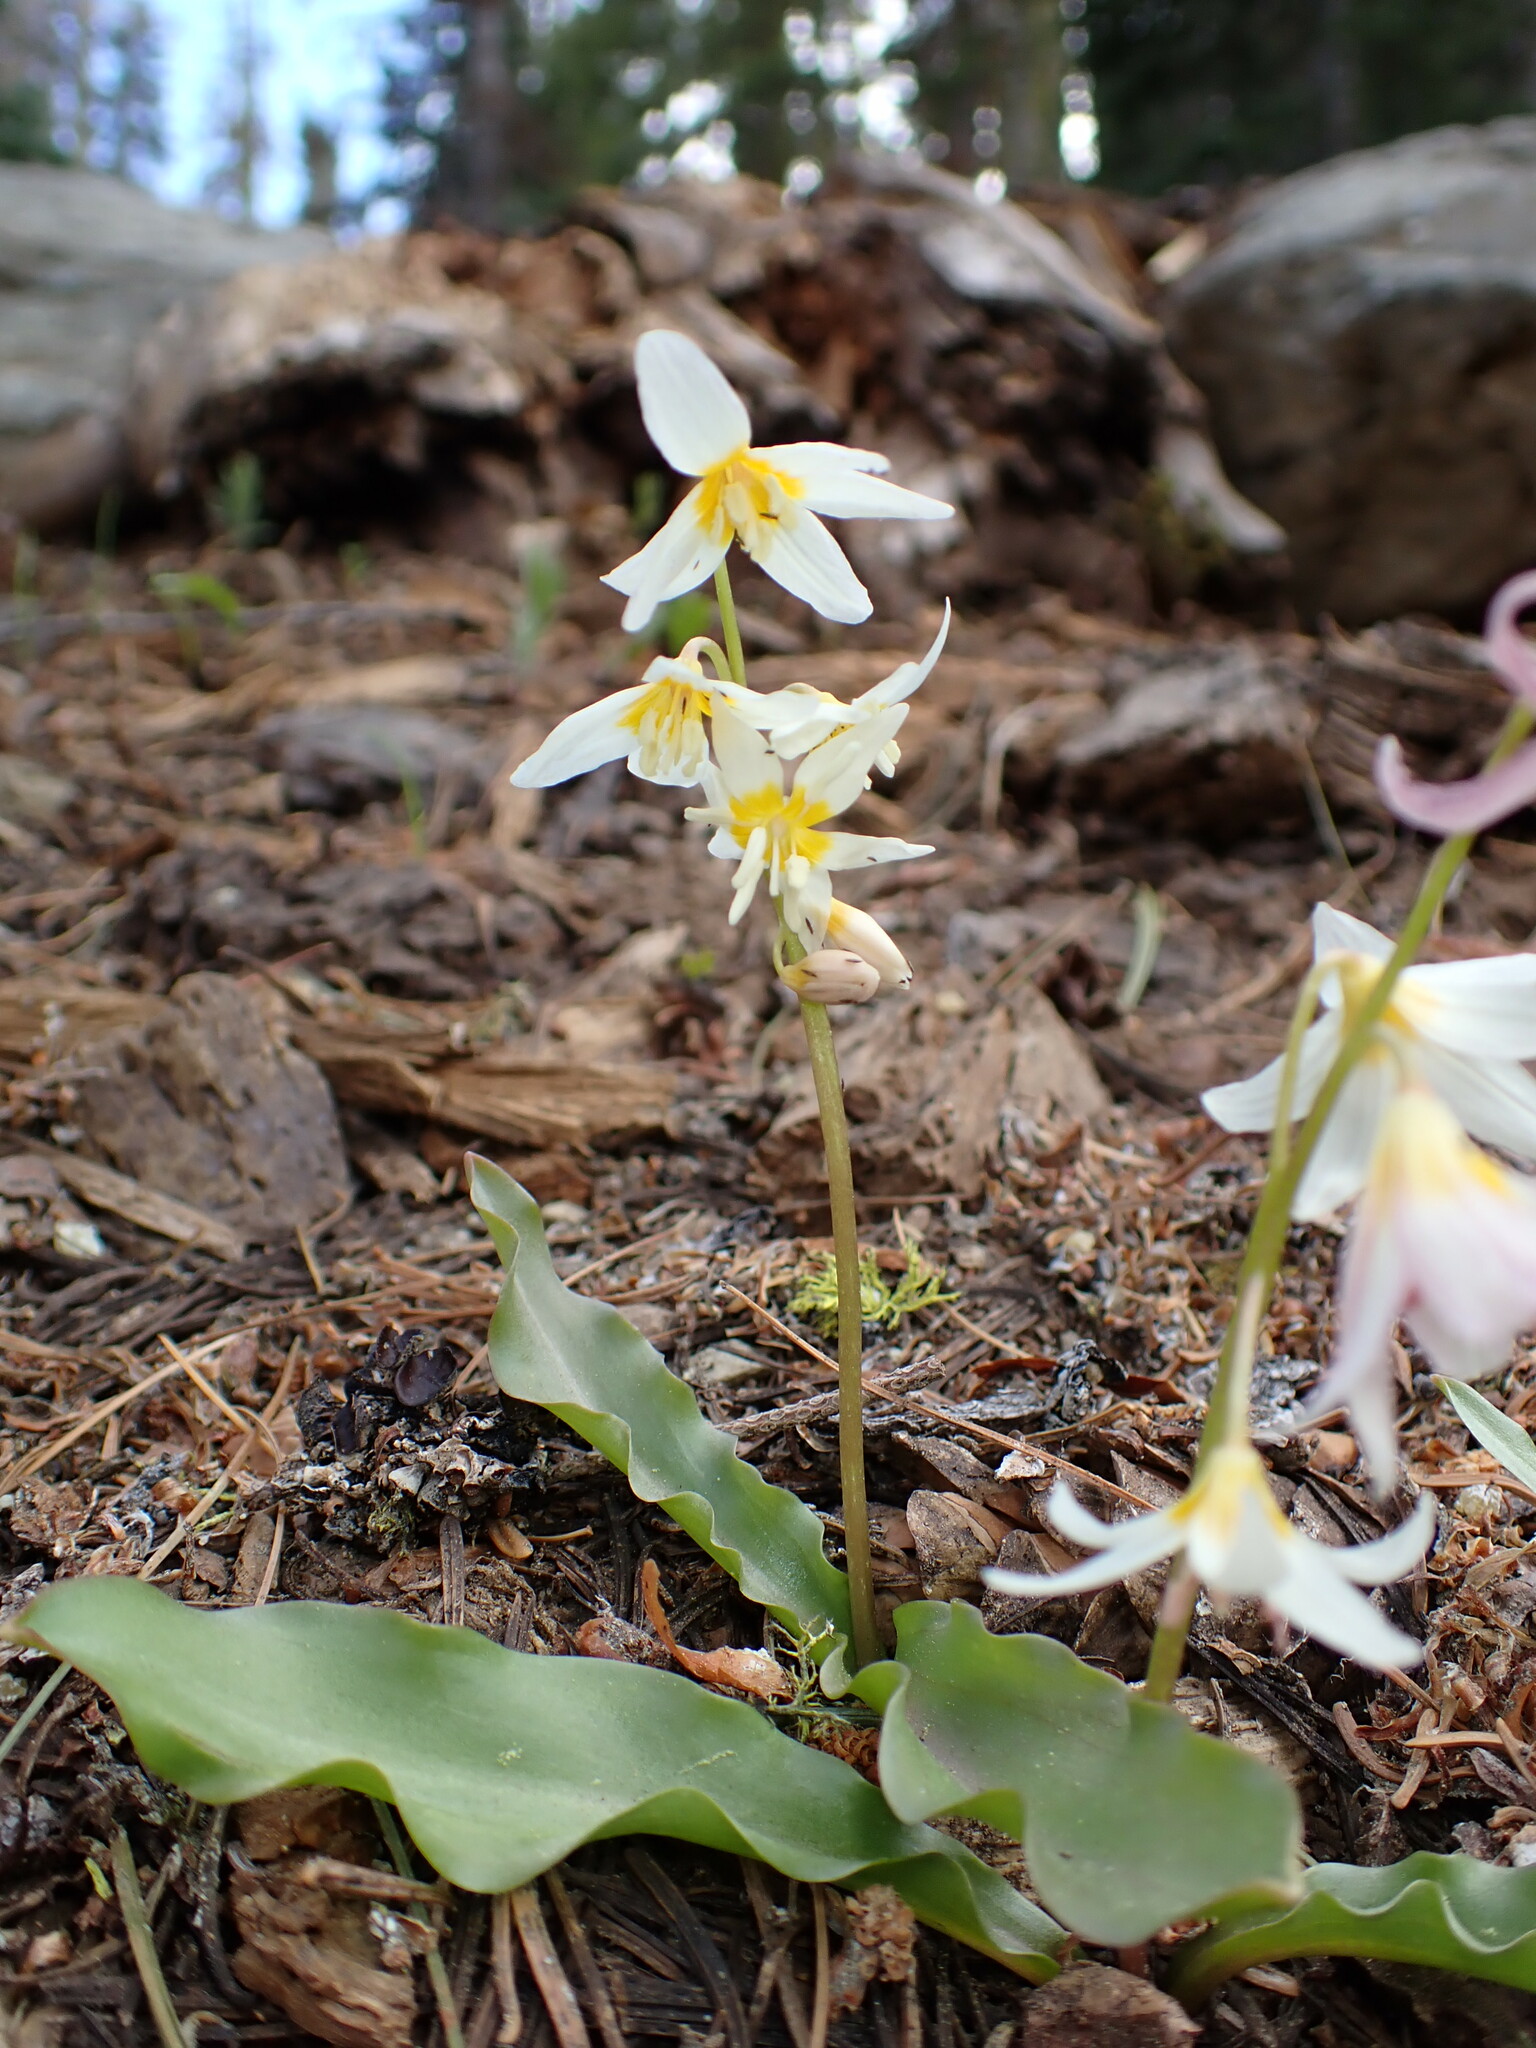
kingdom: Plantae
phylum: Tracheophyta
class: Liliopsida
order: Liliales
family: Liliaceae
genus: Erythronium
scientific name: Erythronium purpurascens
